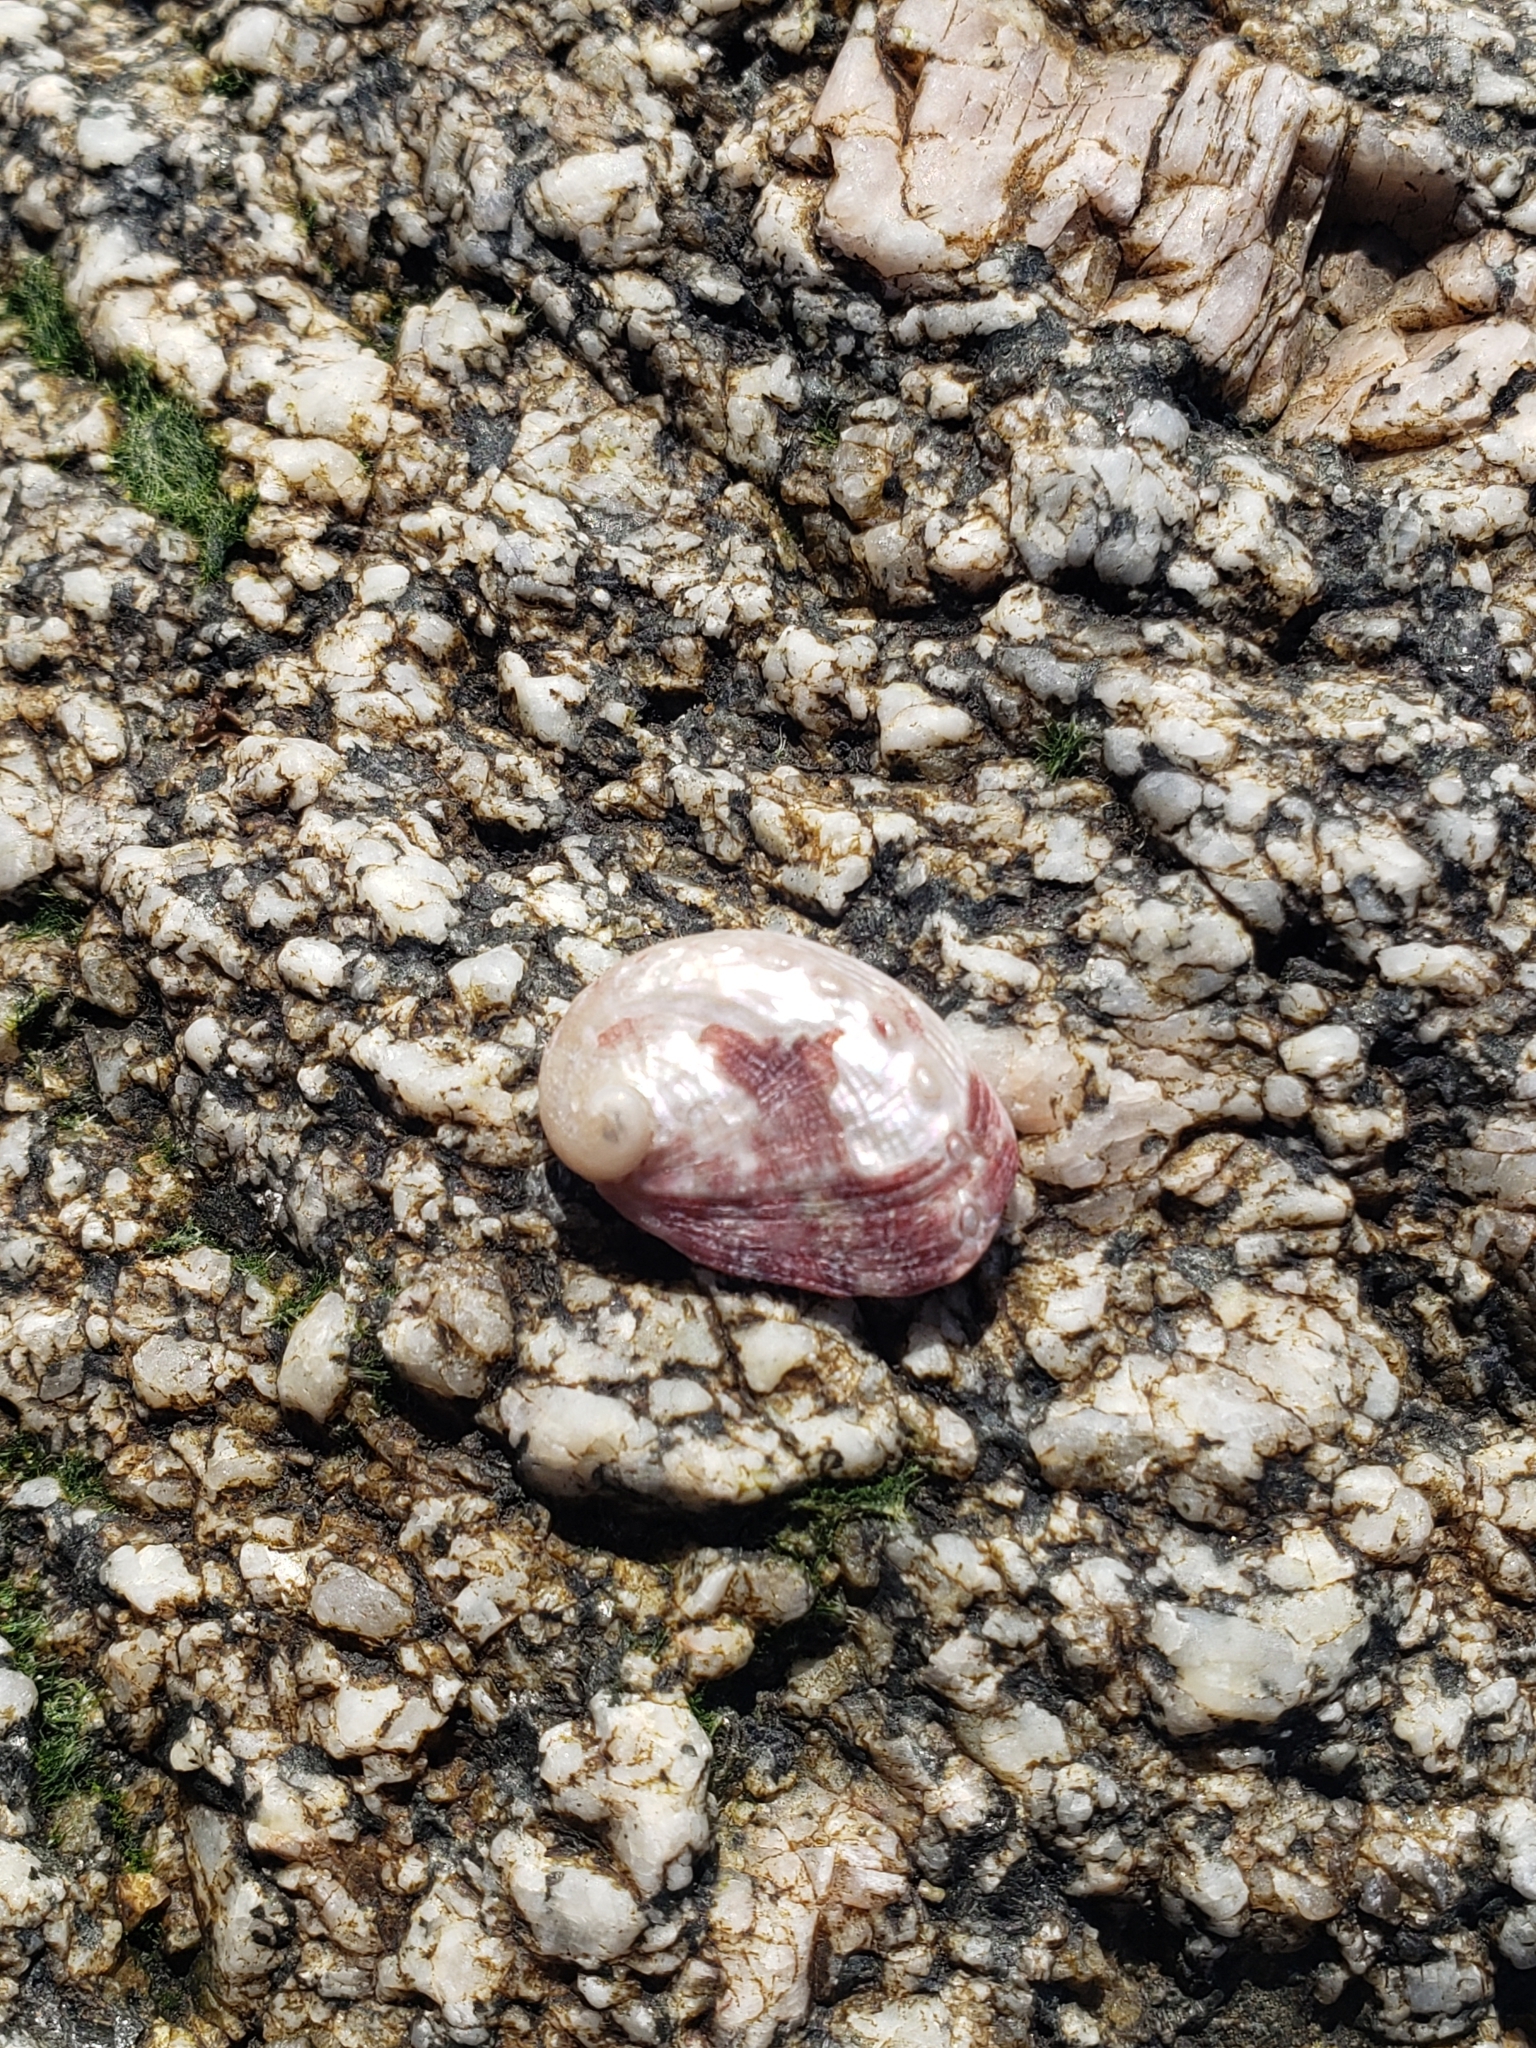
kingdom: Animalia
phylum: Mollusca
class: Gastropoda
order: Lepetellida
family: Haliotidae
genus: Haliotis
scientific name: Haliotis rufescens
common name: Red abalone
